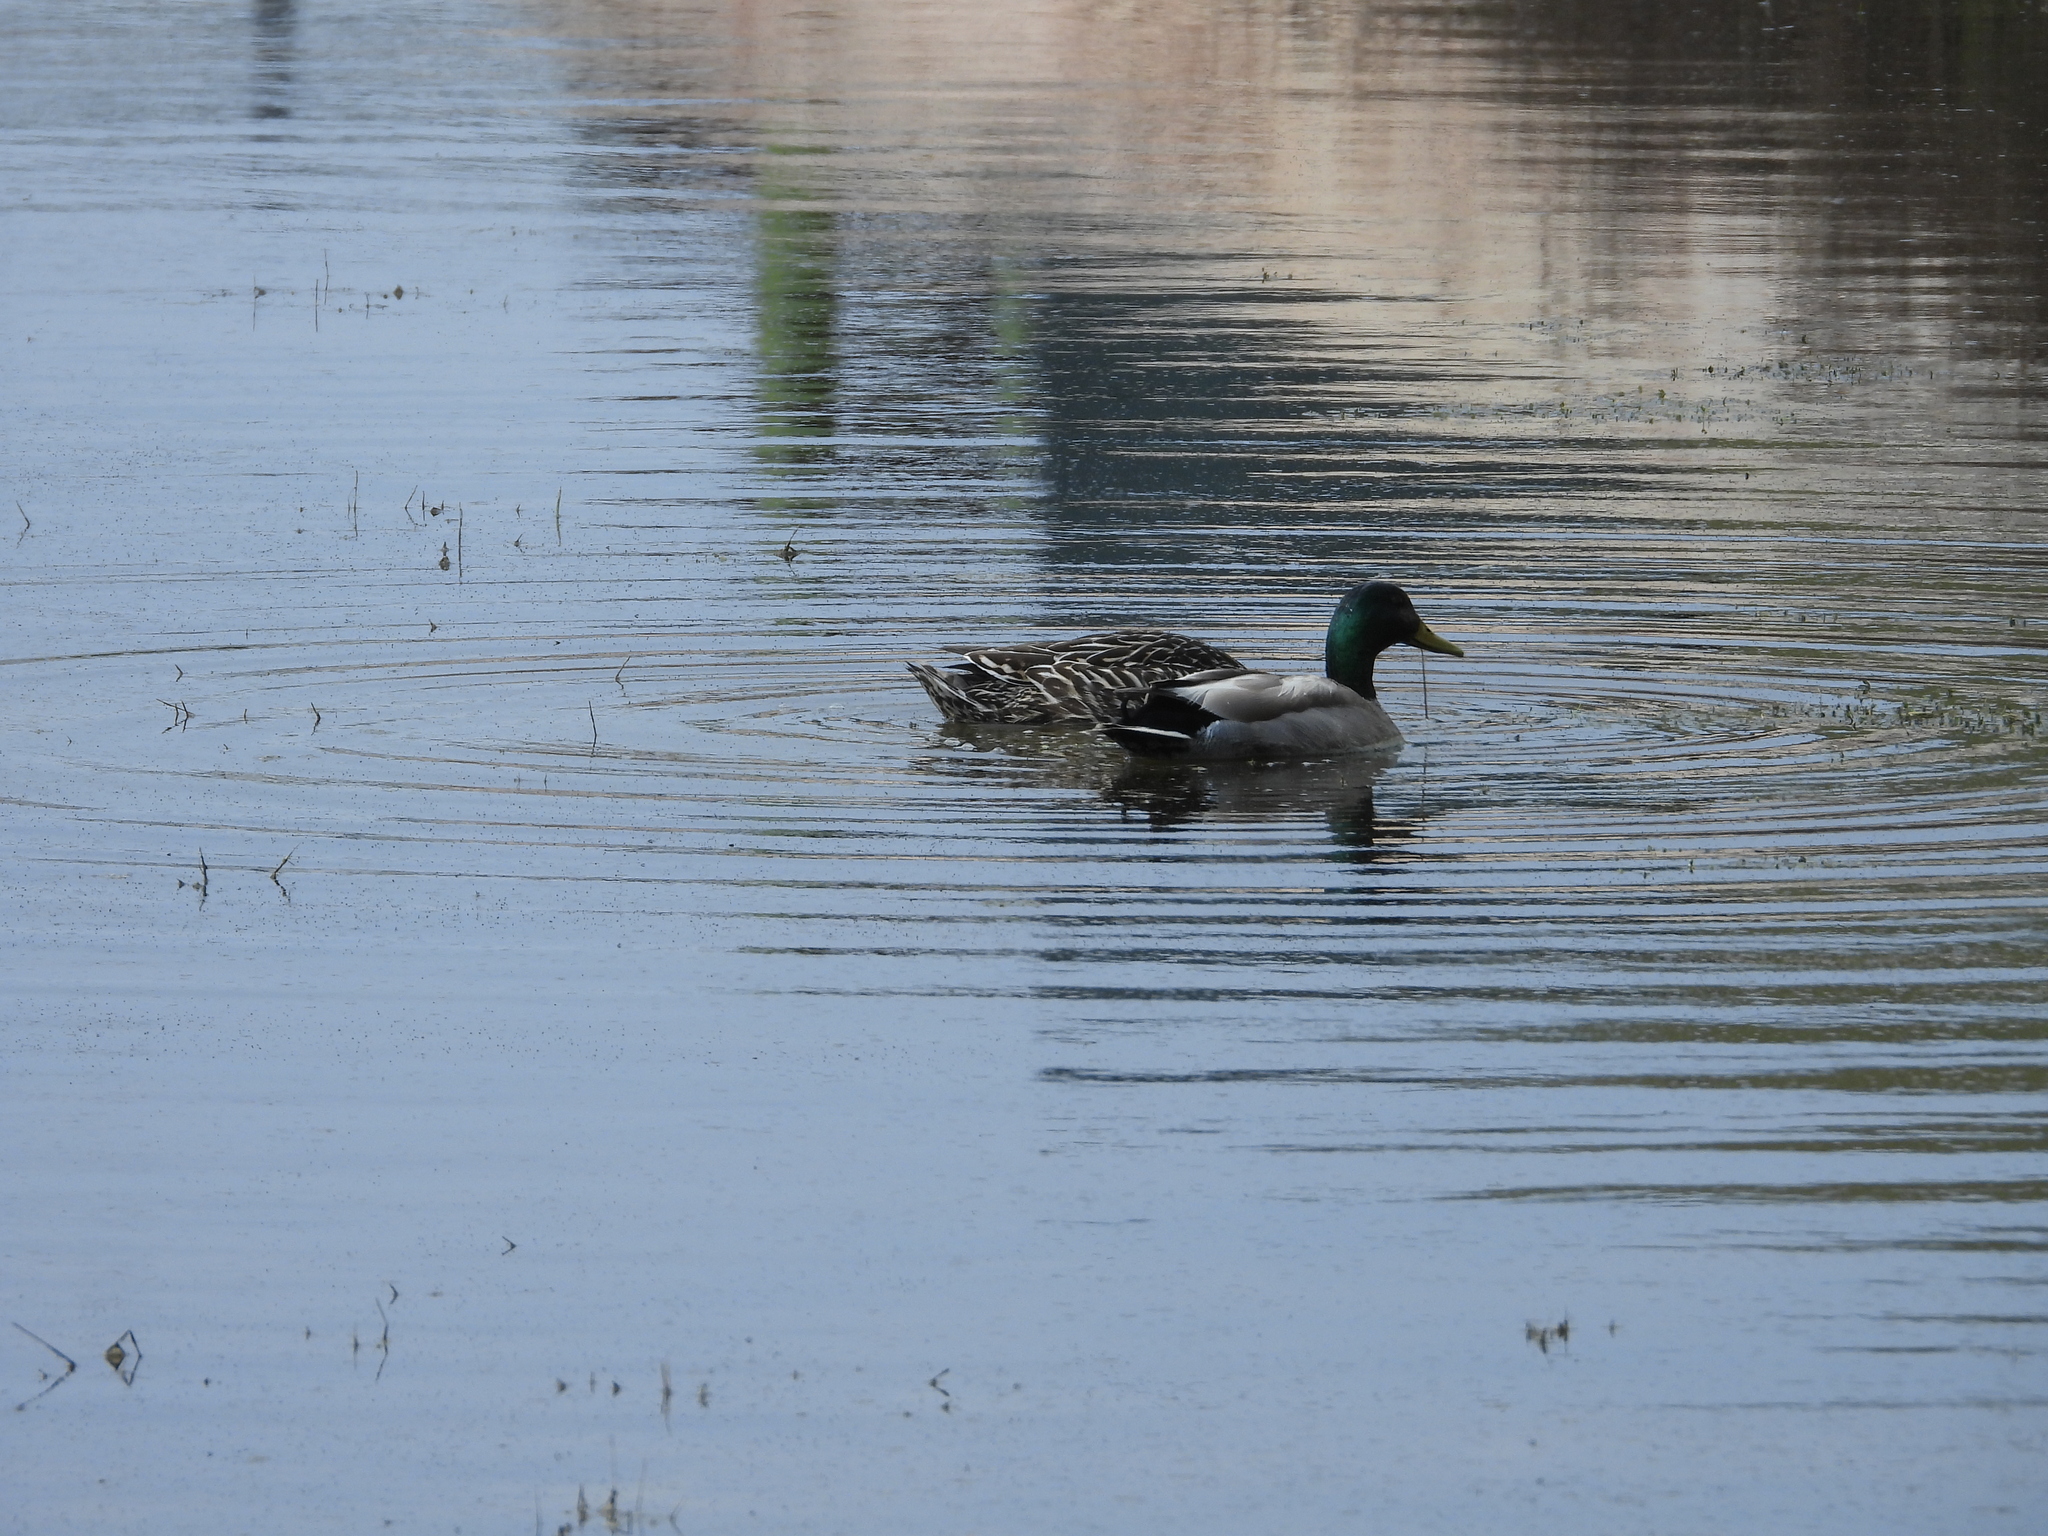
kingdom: Animalia
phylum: Chordata
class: Aves
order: Anseriformes
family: Anatidae
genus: Anas
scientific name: Anas platyrhynchos
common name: Mallard
